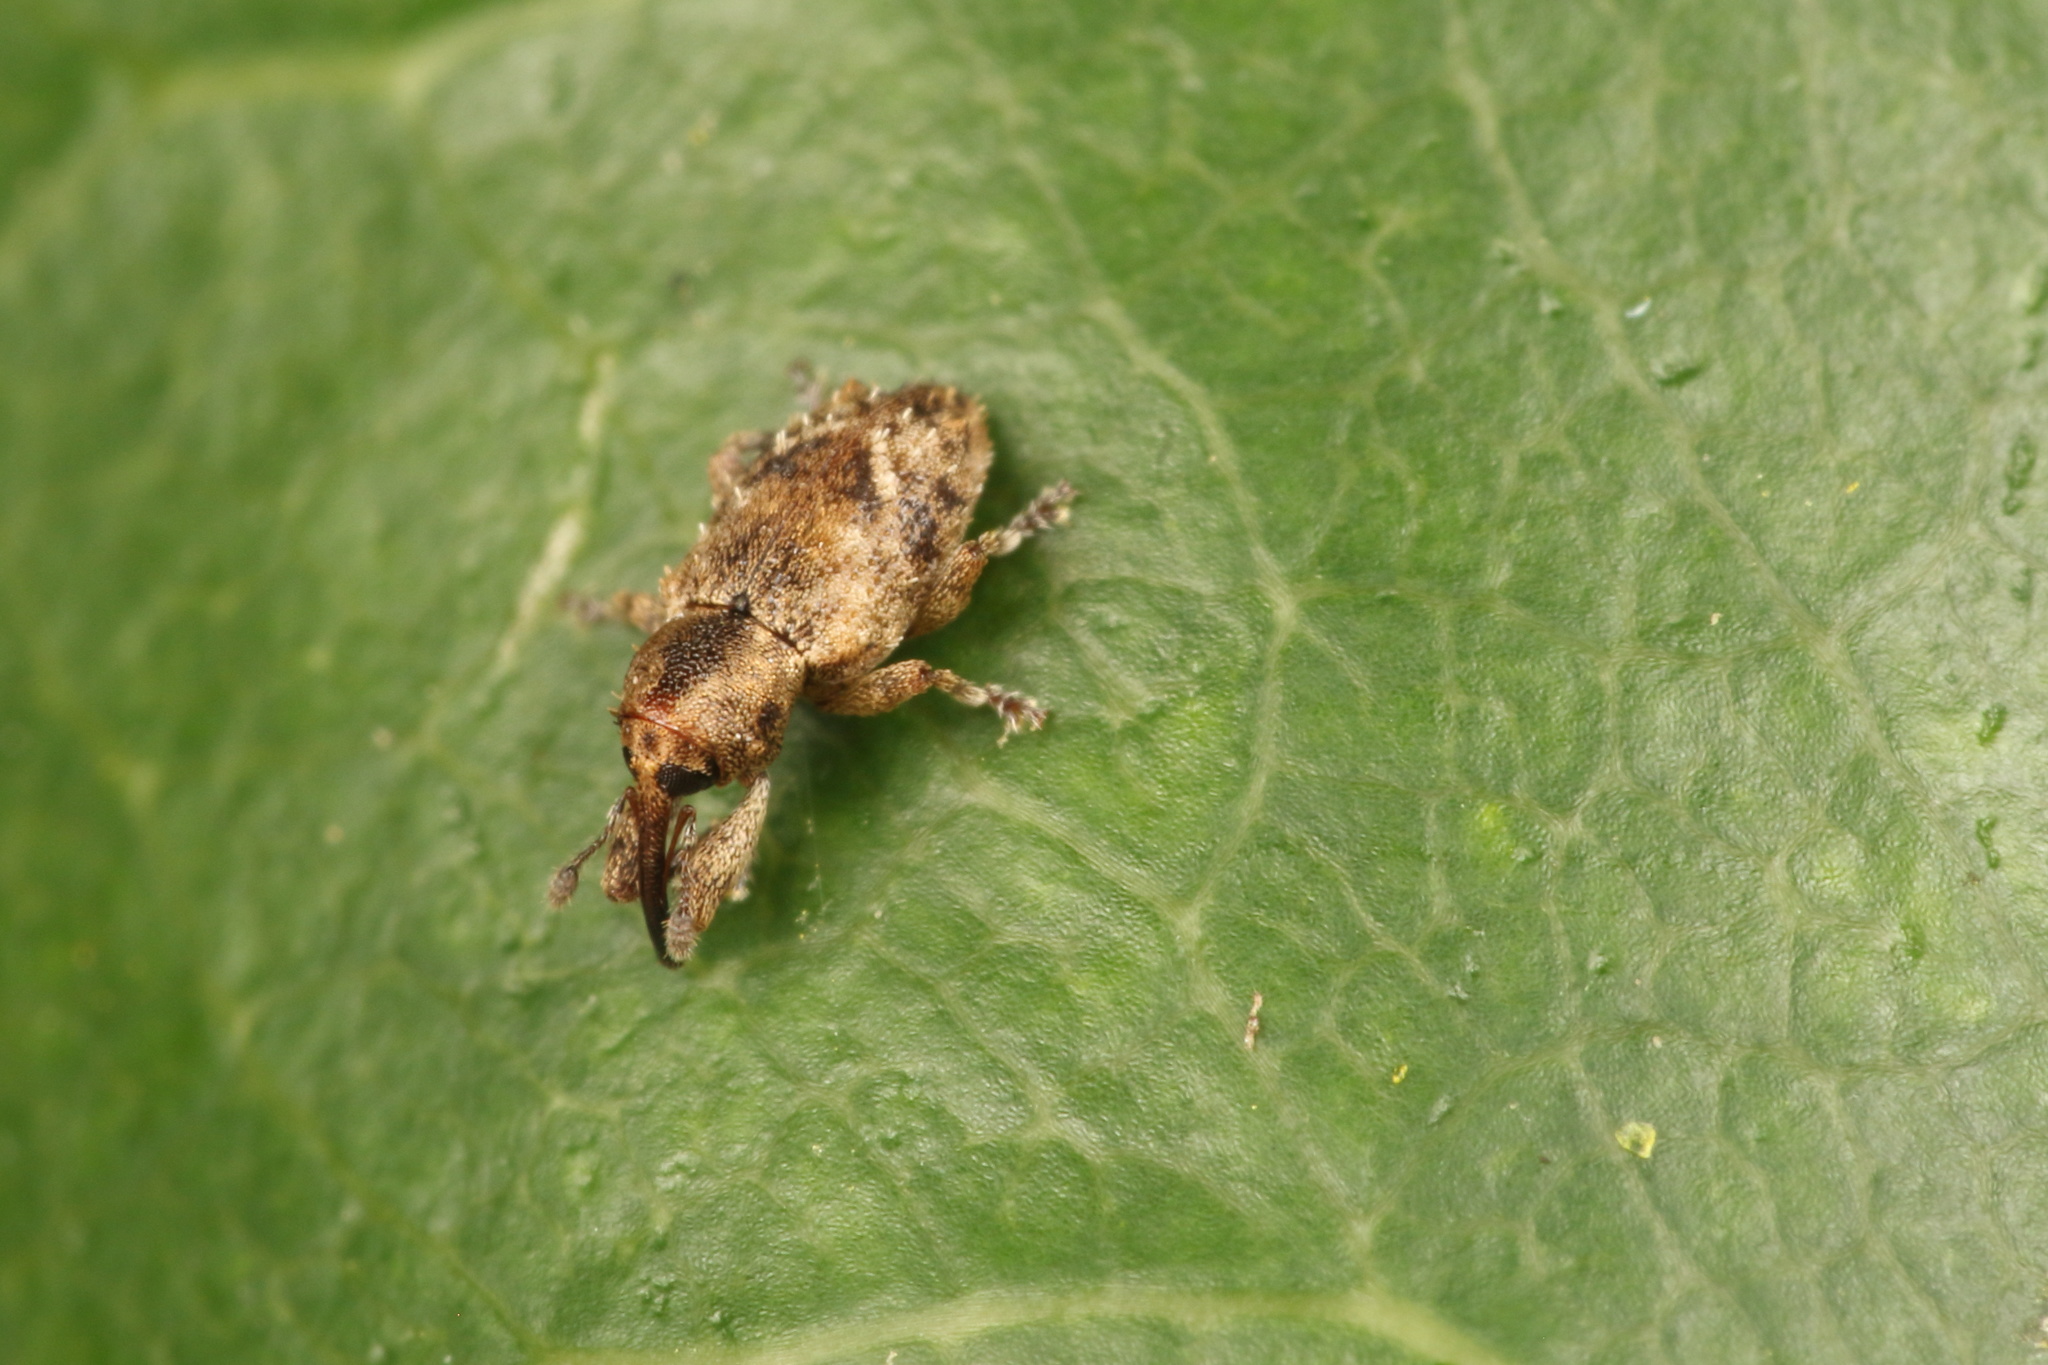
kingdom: Animalia
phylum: Arthropoda
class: Insecta
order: Coleoptera
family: Curculionidae
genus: Praolepra
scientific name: Praolepra infusca
